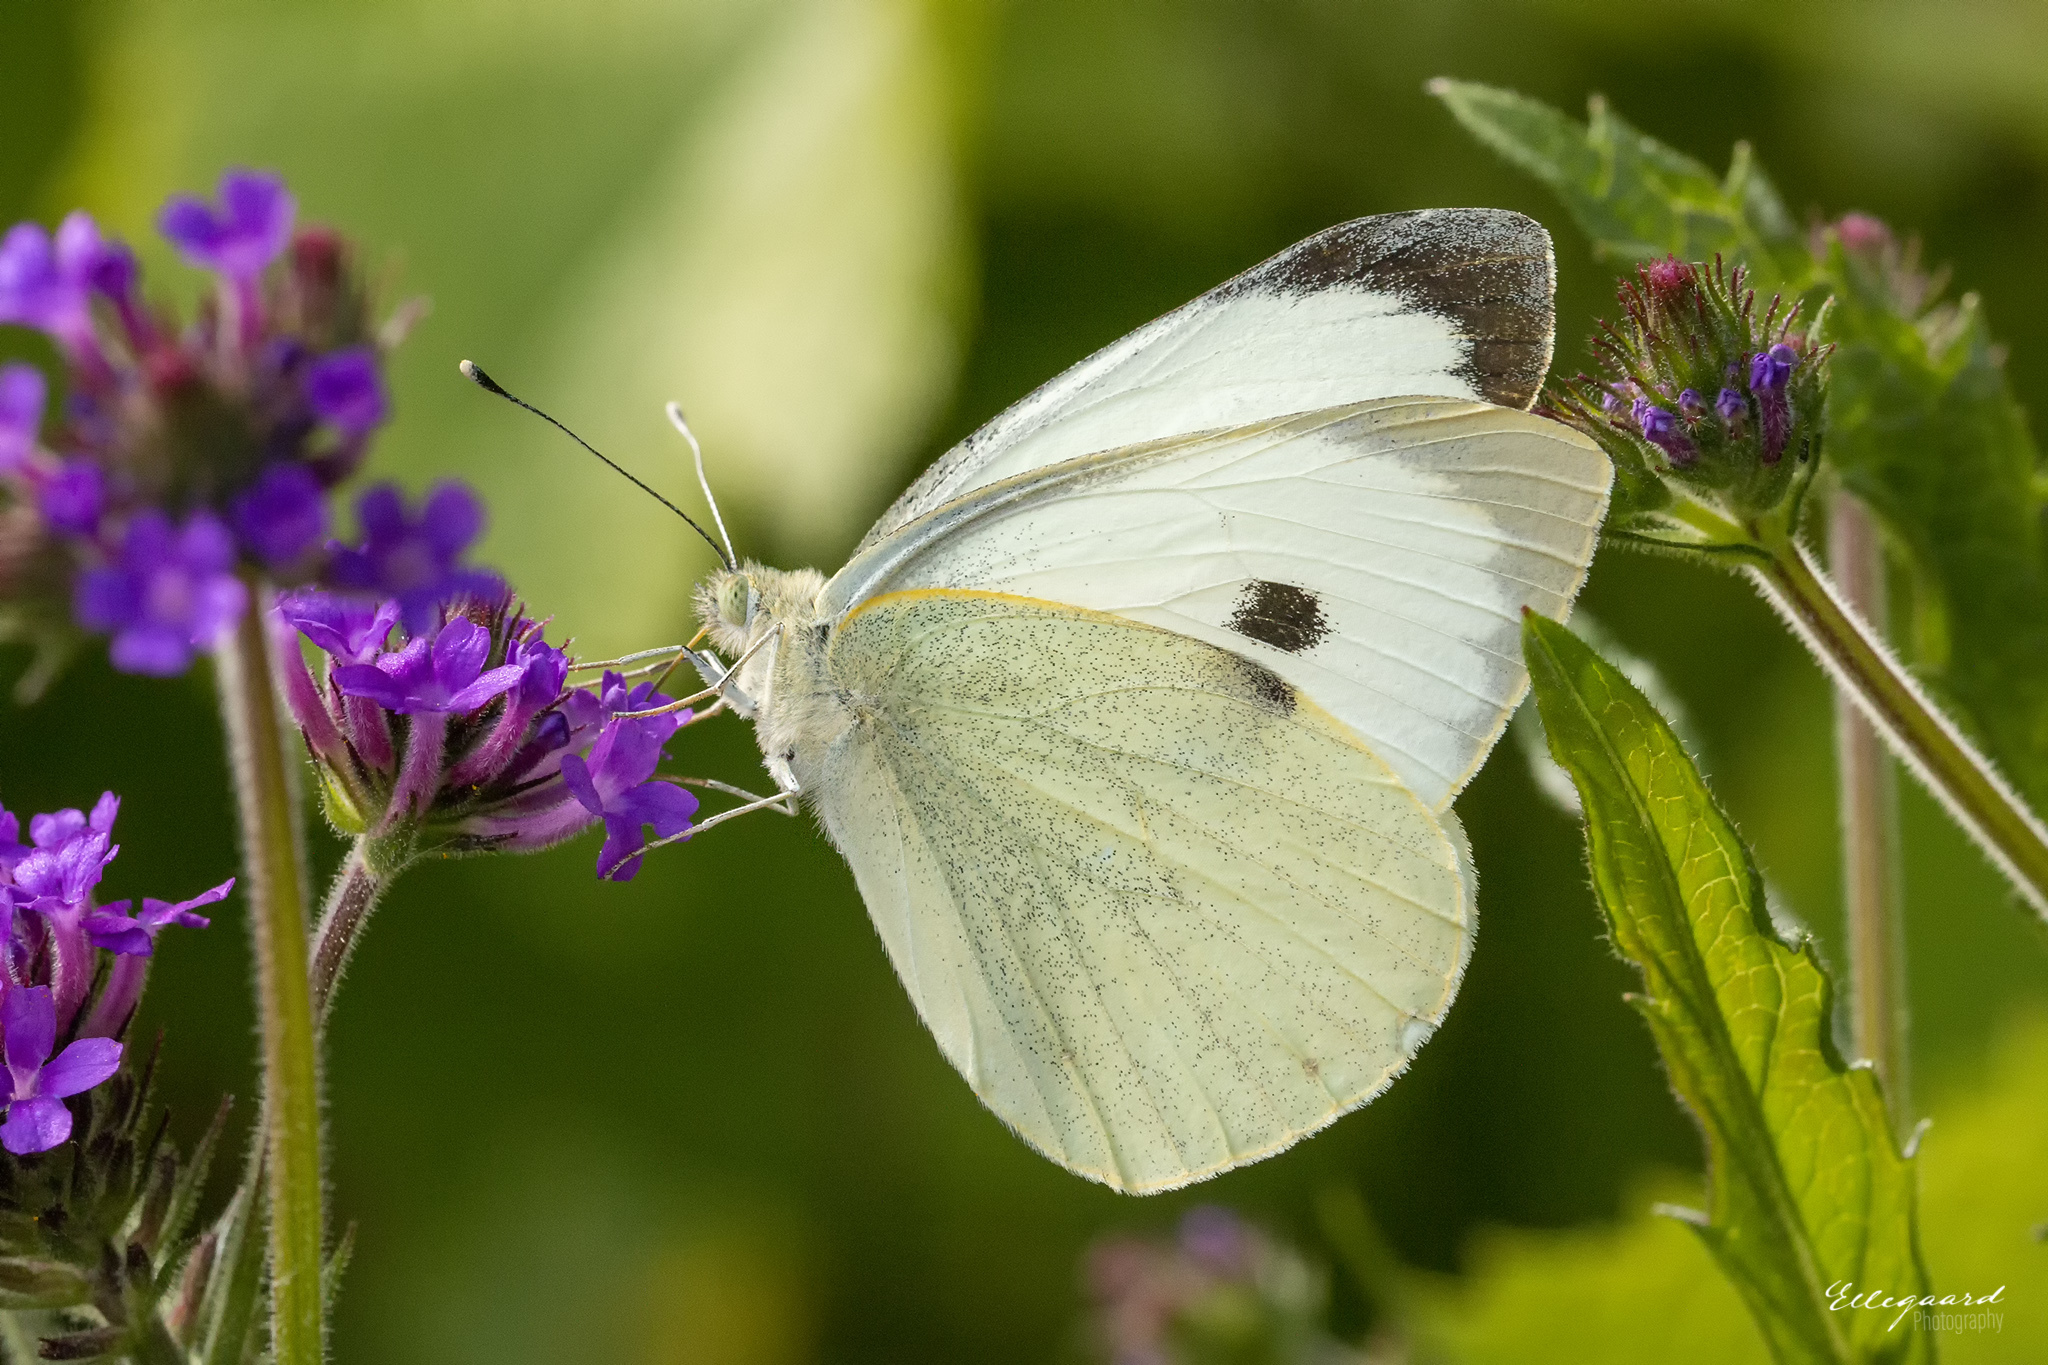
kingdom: Animalia
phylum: Arthropoda
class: Insecta
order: Lepidoptera
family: Pieridae
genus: Pieris
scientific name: Pieris brassicae
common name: Large white
